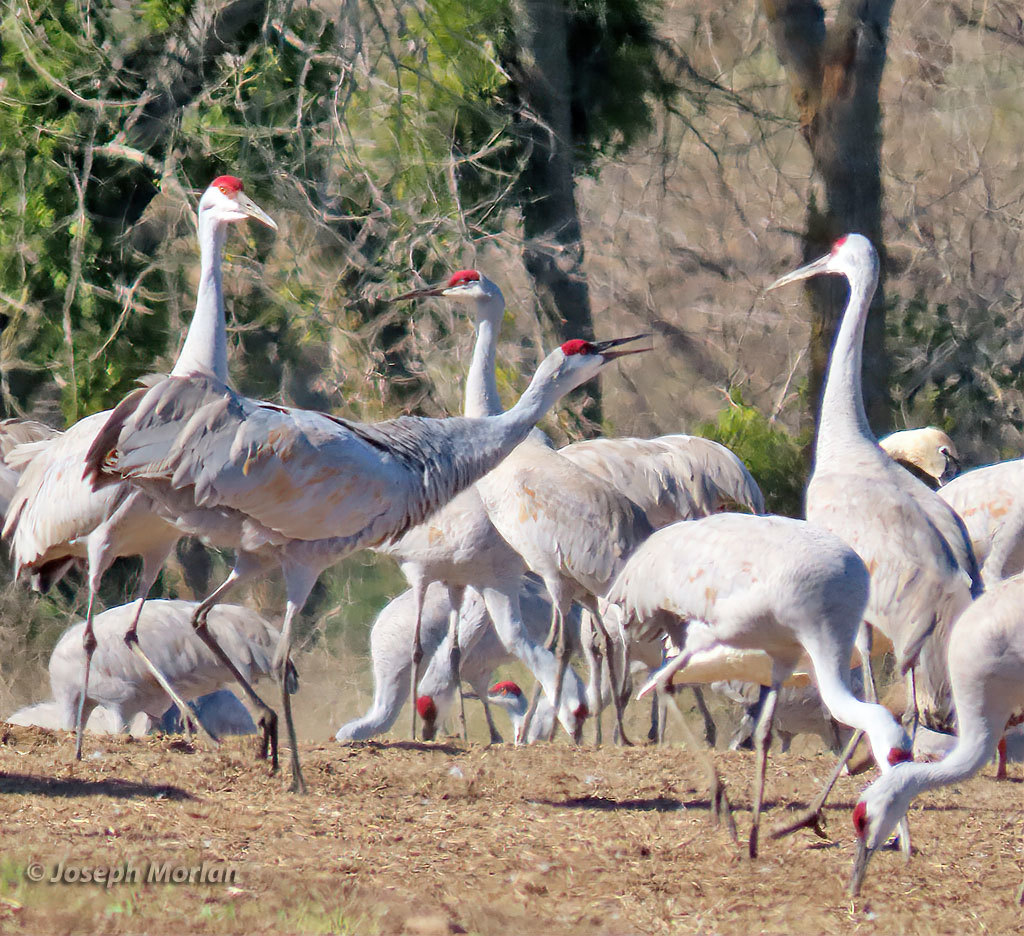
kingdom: Animalia
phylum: Chordata
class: Aves
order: Gruiformes
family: Gruidae
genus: Grus
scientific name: Grus canadensis
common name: Sandhill crane
